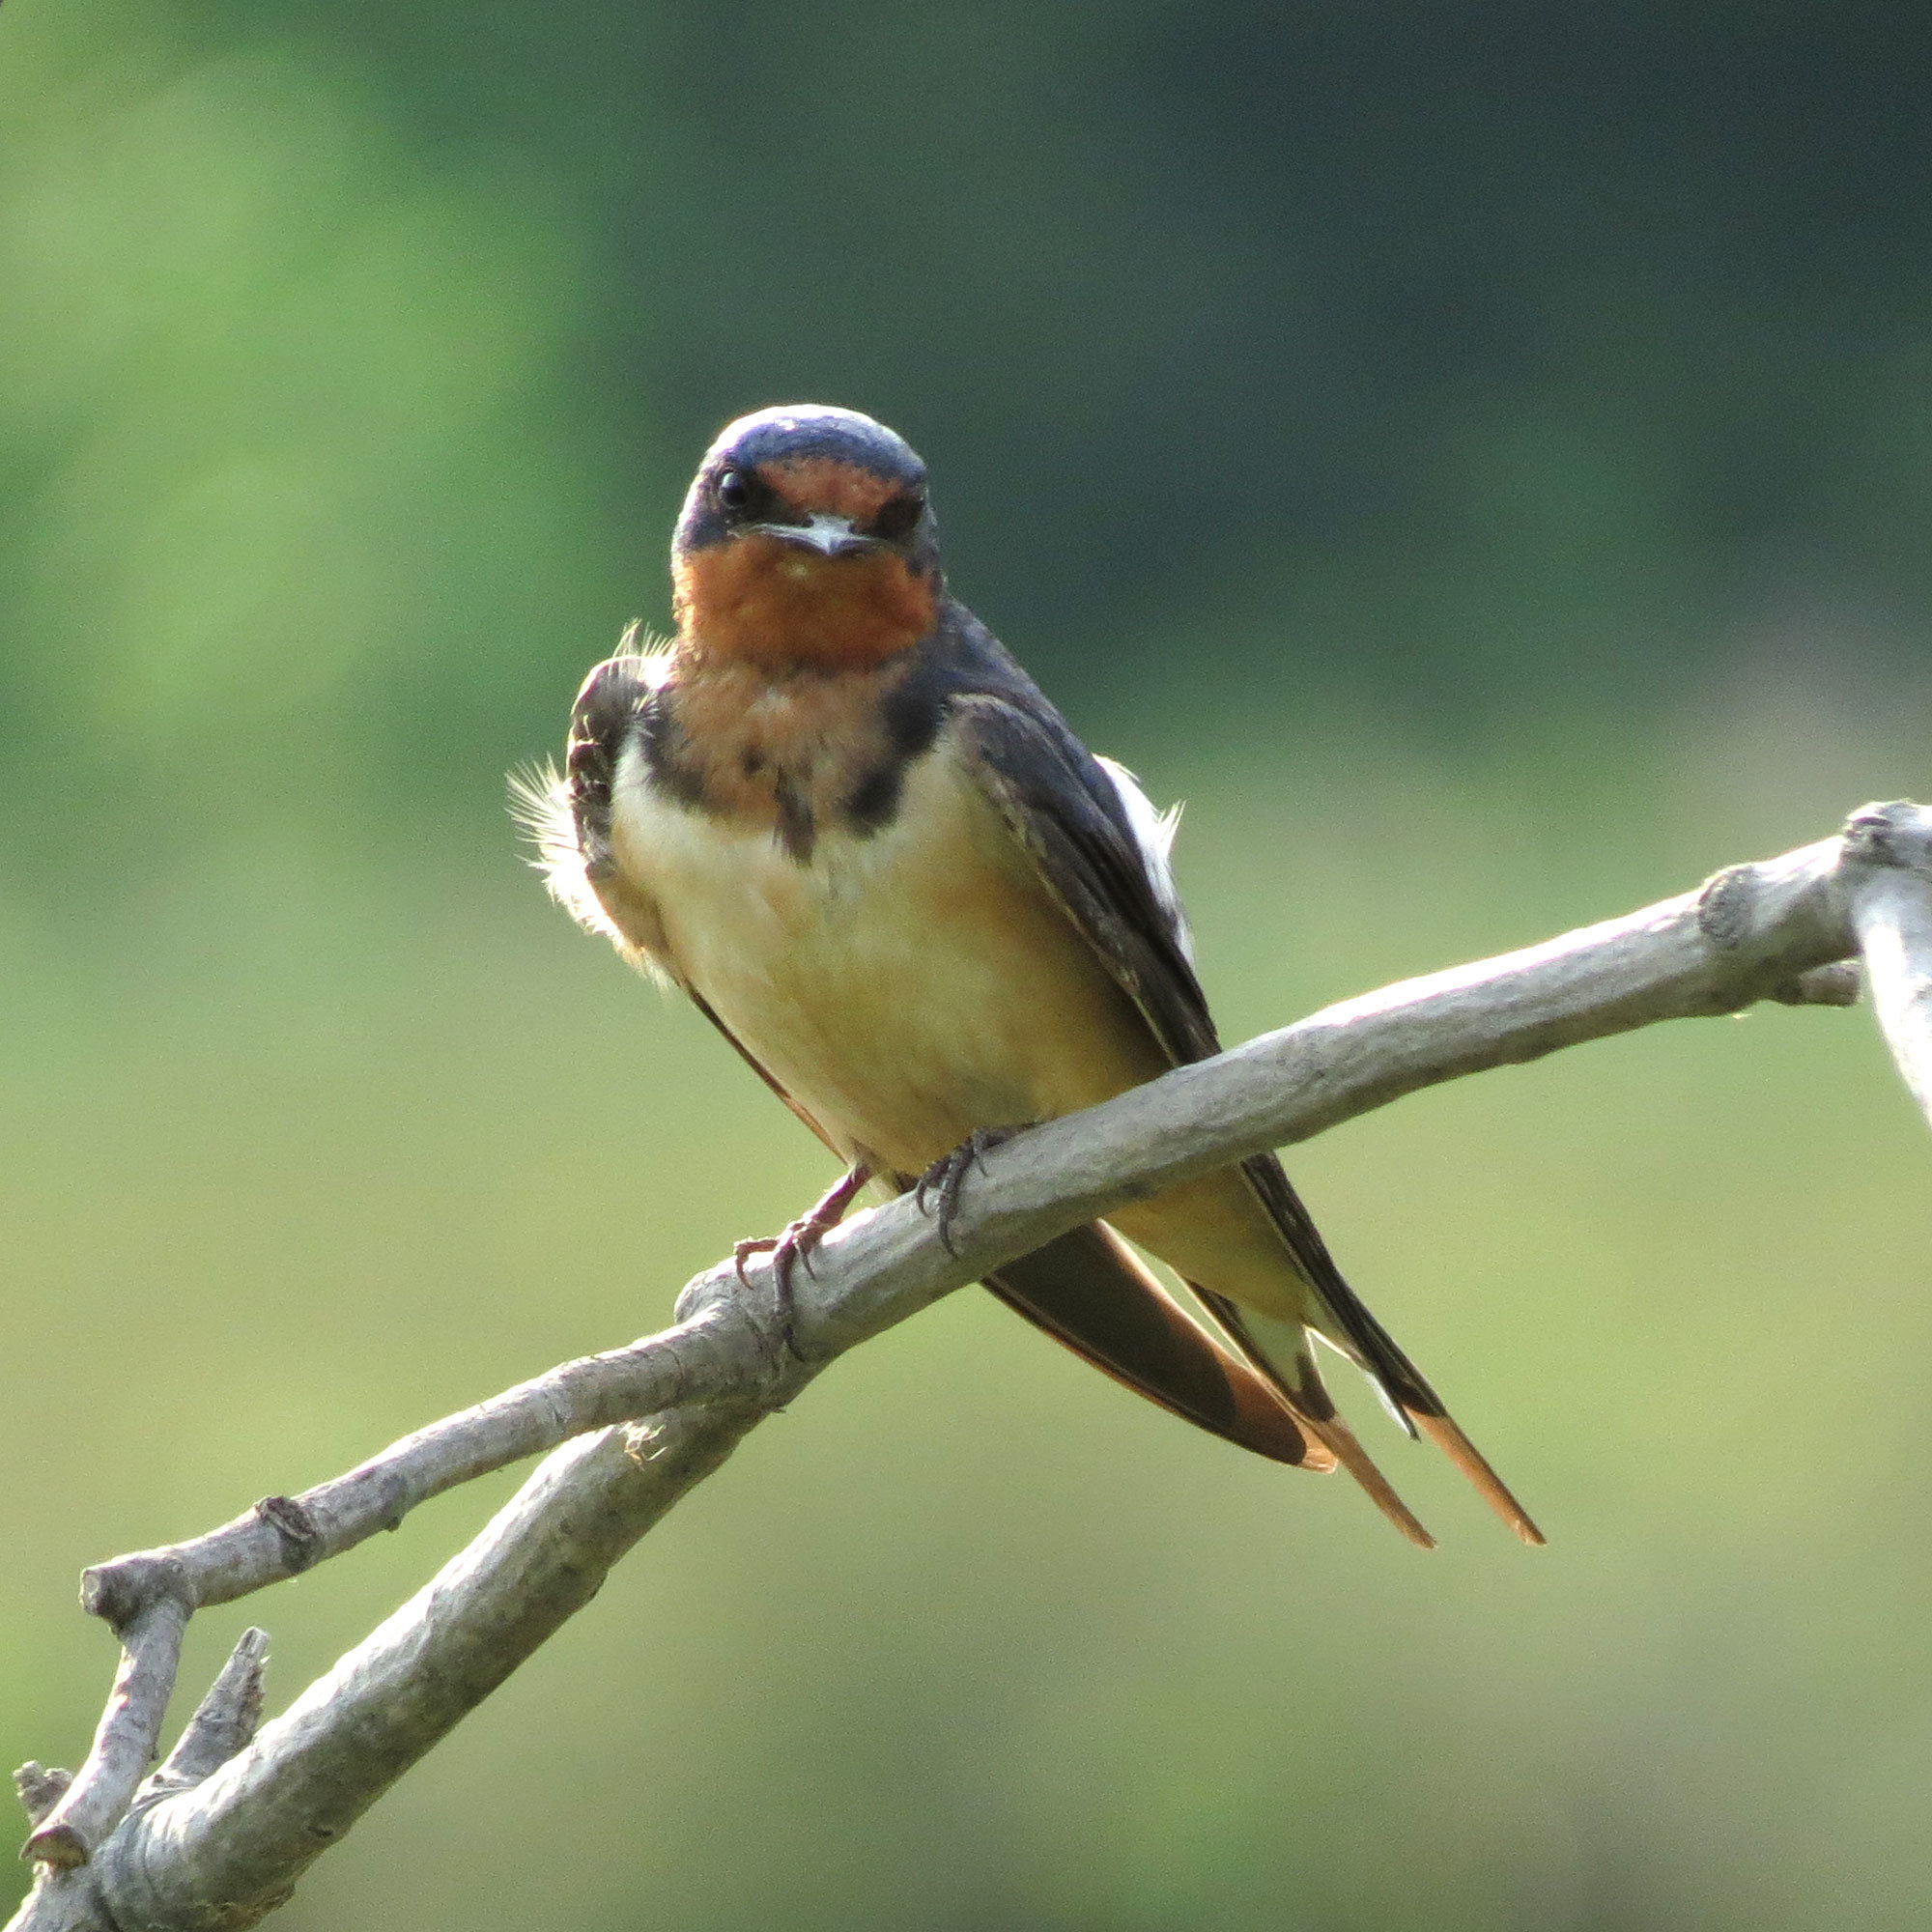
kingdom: Animalia
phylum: Chordata
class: Aves
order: Passeriformes
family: Hirundinidae
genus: Hirundo
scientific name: Hirundo rustica
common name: Barn swallow
